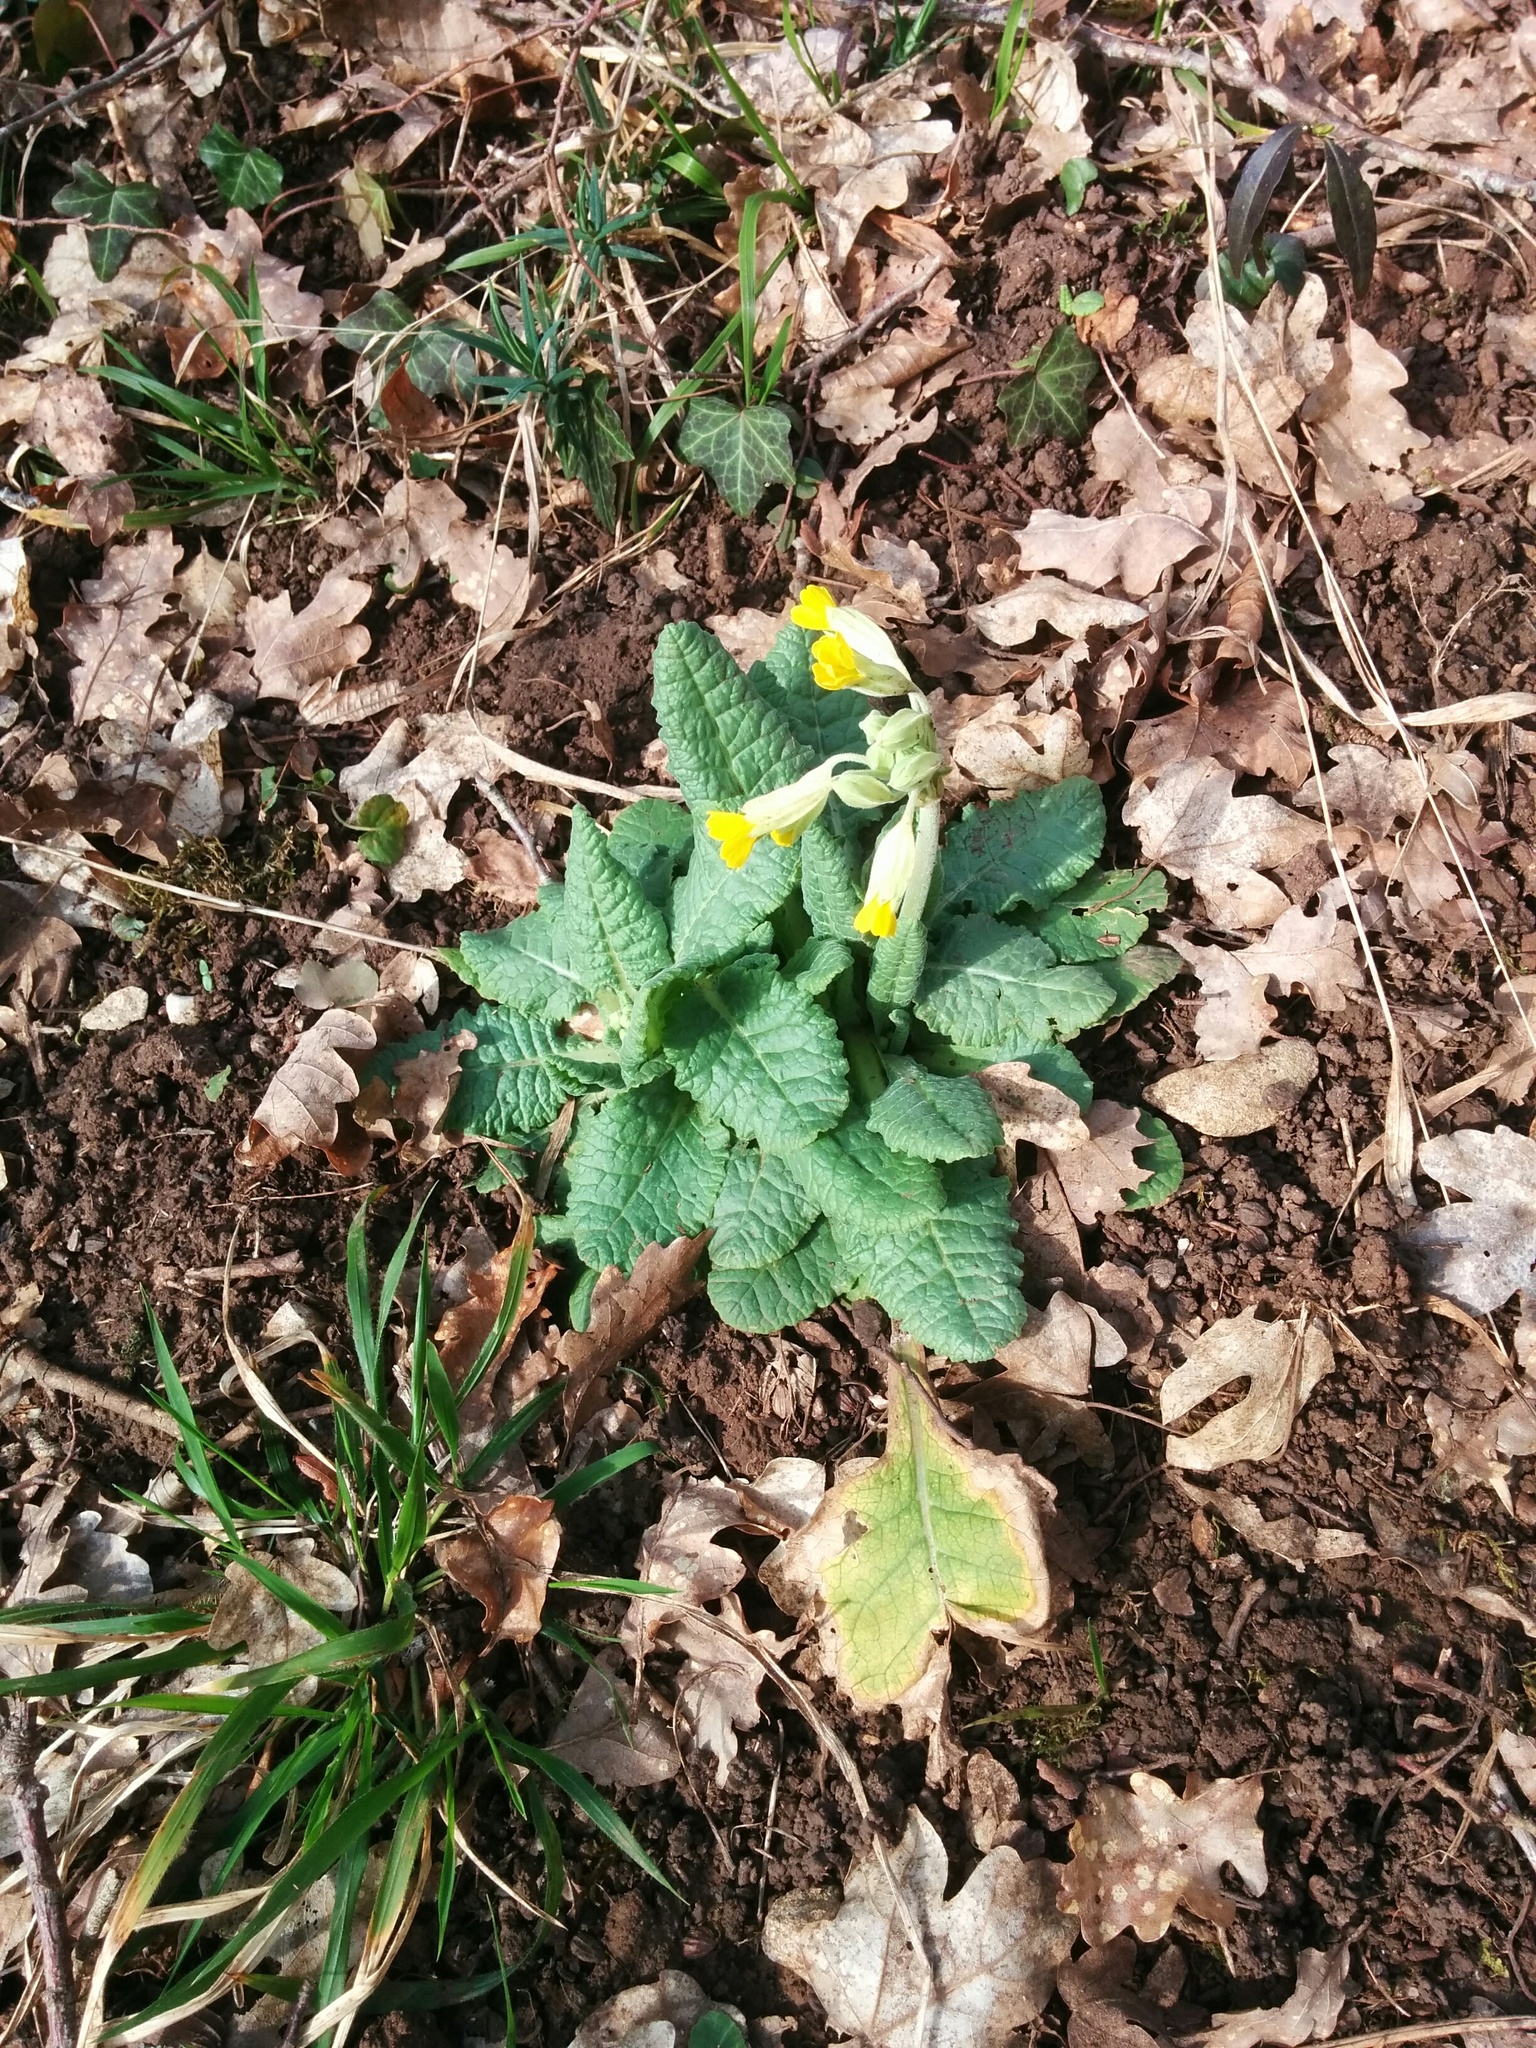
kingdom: Plantae
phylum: Tracheophyta
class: Magnoliopsida
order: Ericales
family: Primulaceae
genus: Primula
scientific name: Primula veris
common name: Cowslip
